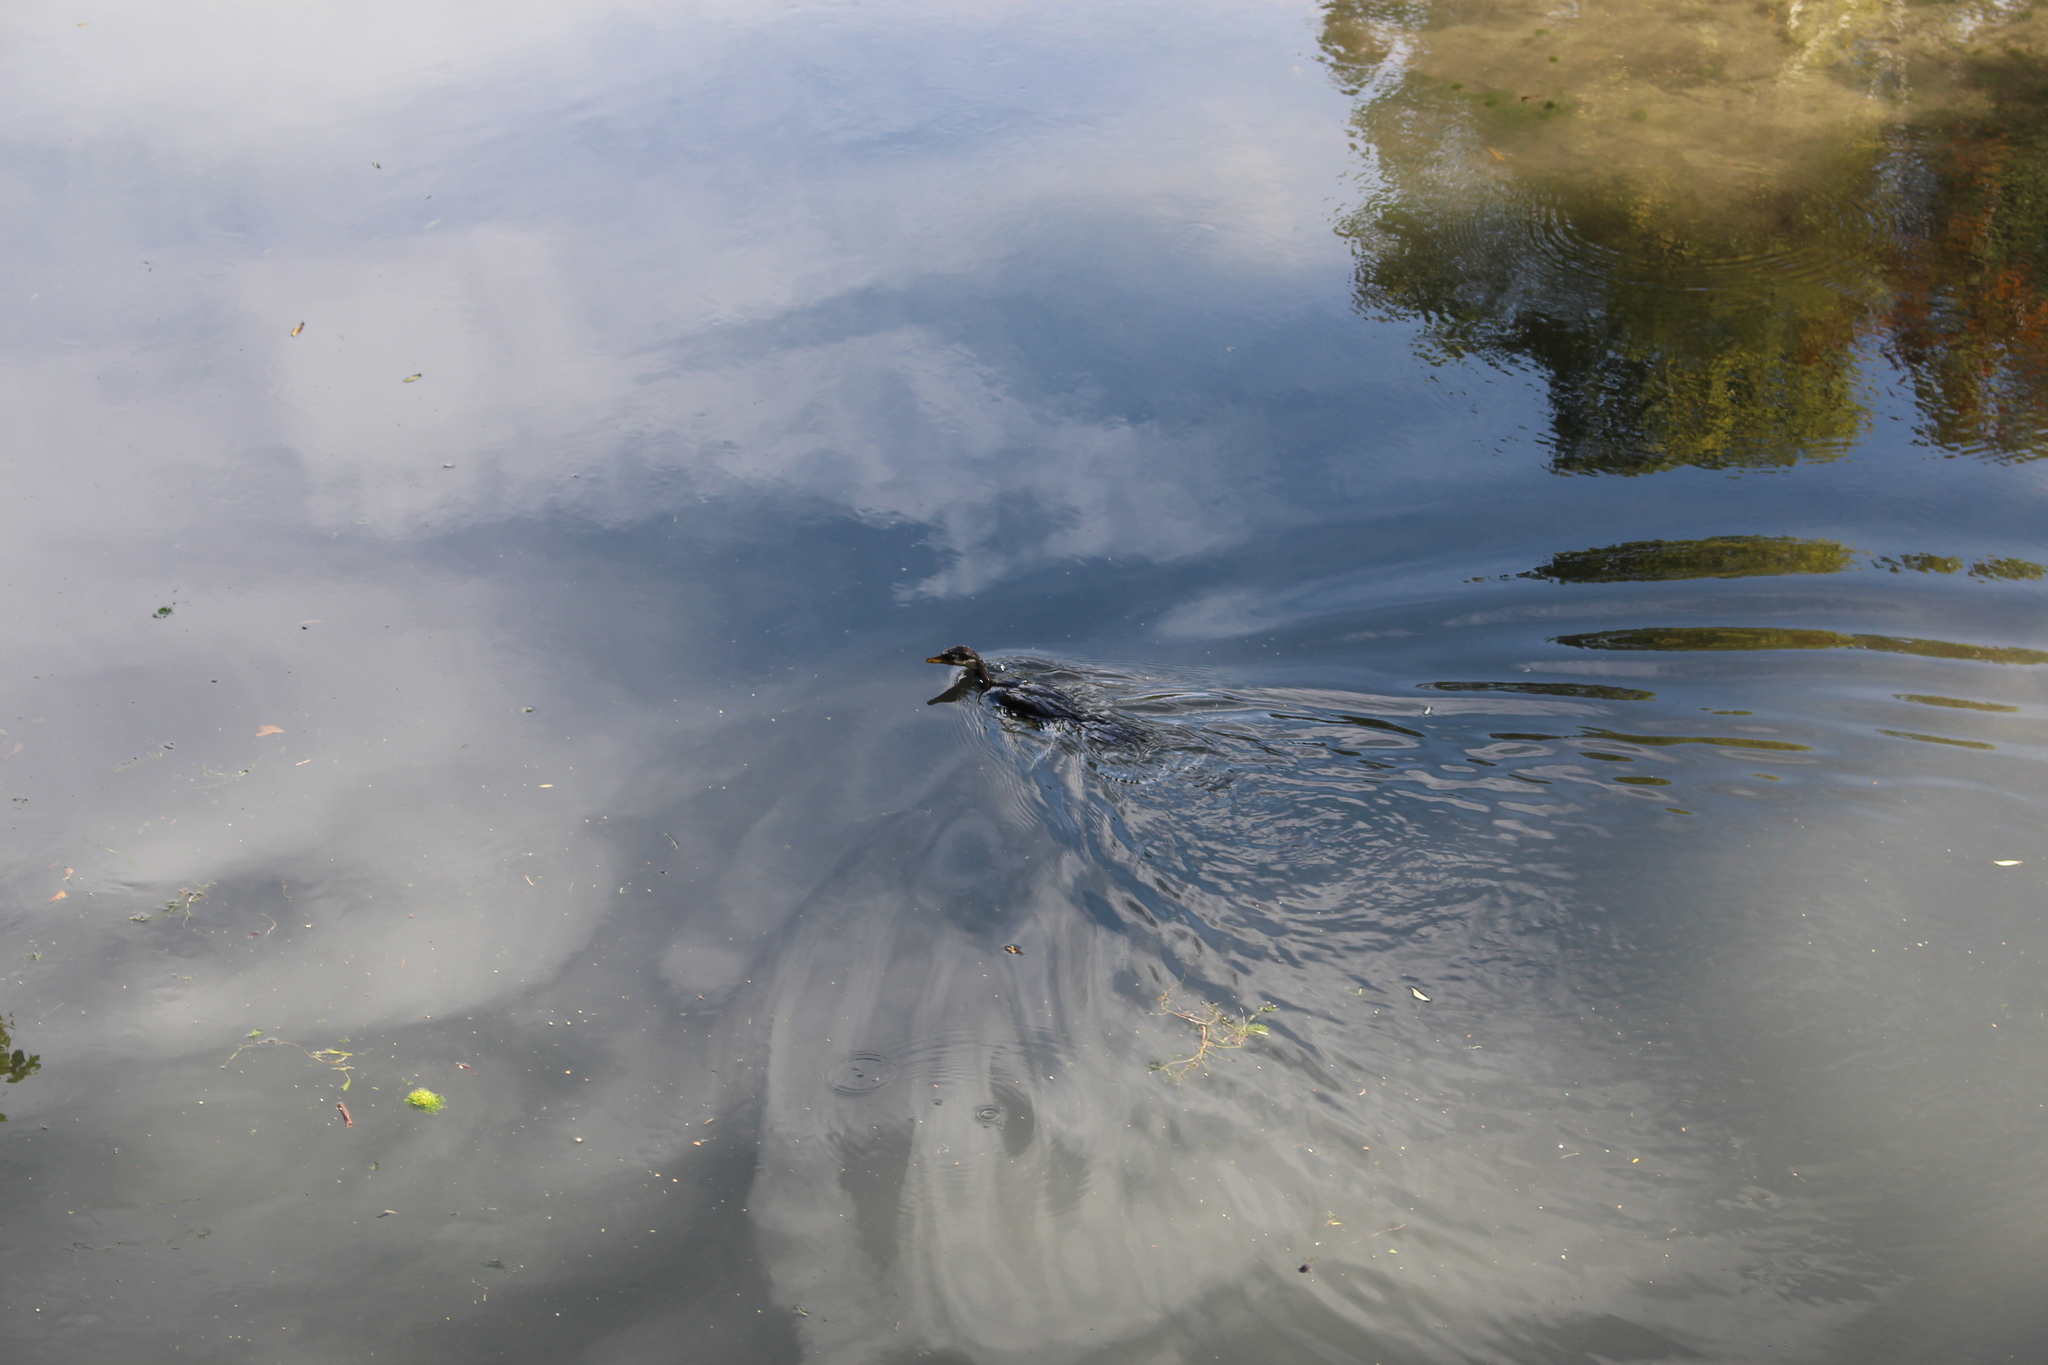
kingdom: Animalia
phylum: Chordata
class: Aves
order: Suliformes
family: Phalacrocoracidae
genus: Microcarbo
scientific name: Microcarbo melanoleucos
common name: Little pied cormorant
